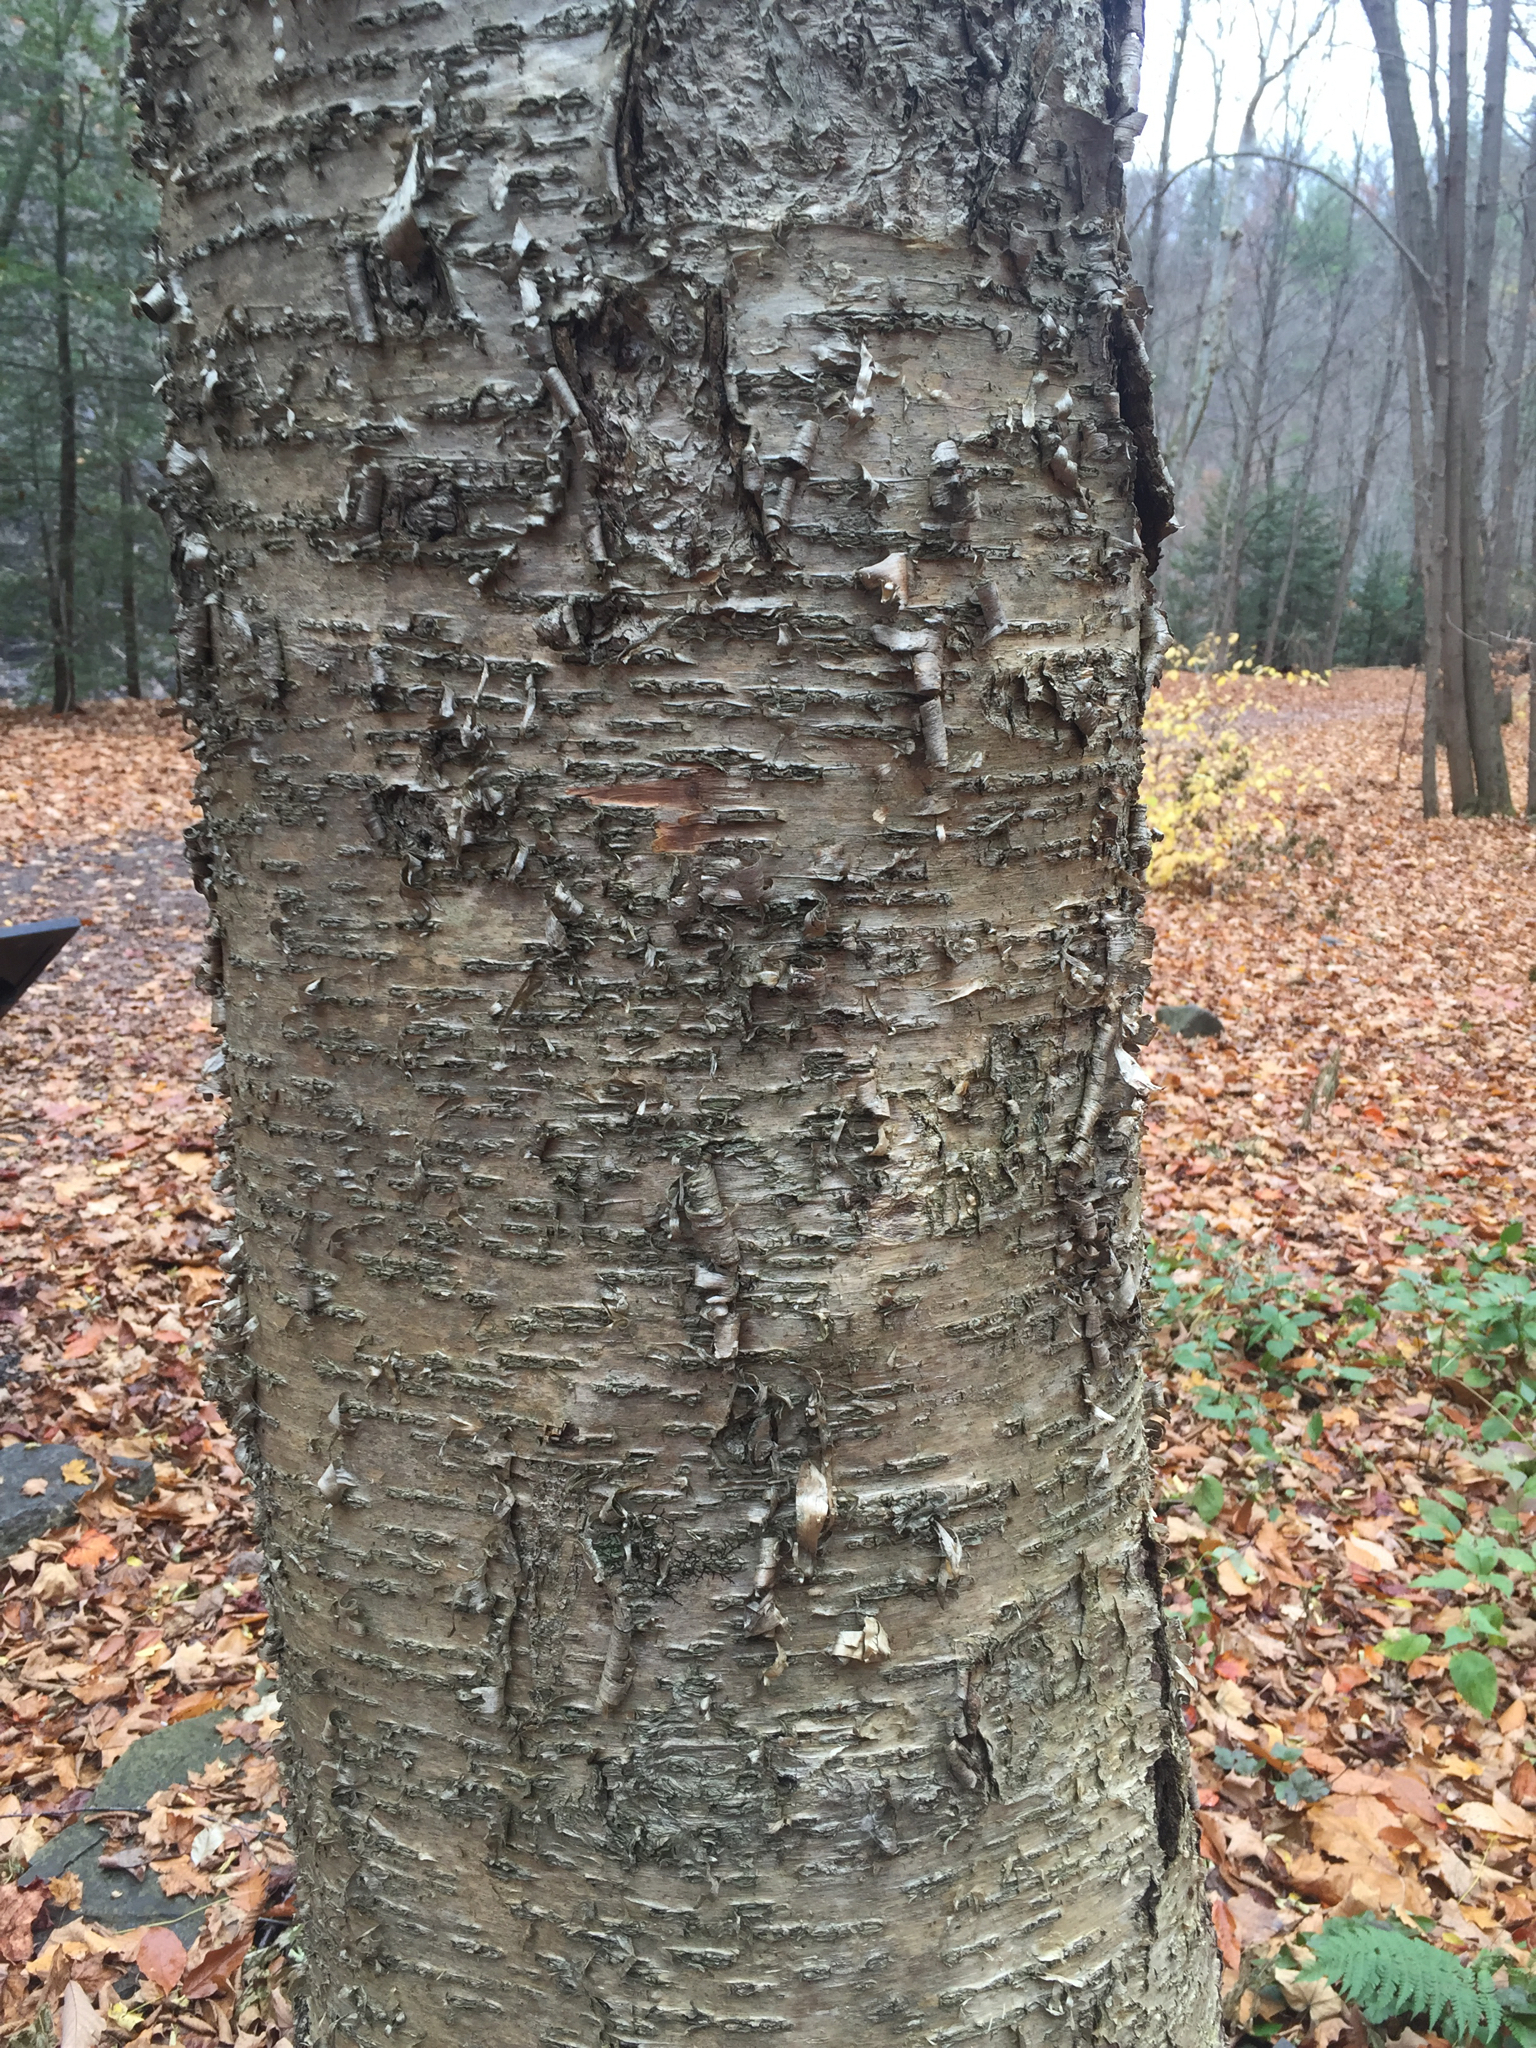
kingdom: Plantae
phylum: Tracheophyta
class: Magnoliopsida
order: Fagales
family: Betulaceae
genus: Betula
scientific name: Betula alleghaniensis
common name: Yellow birch
